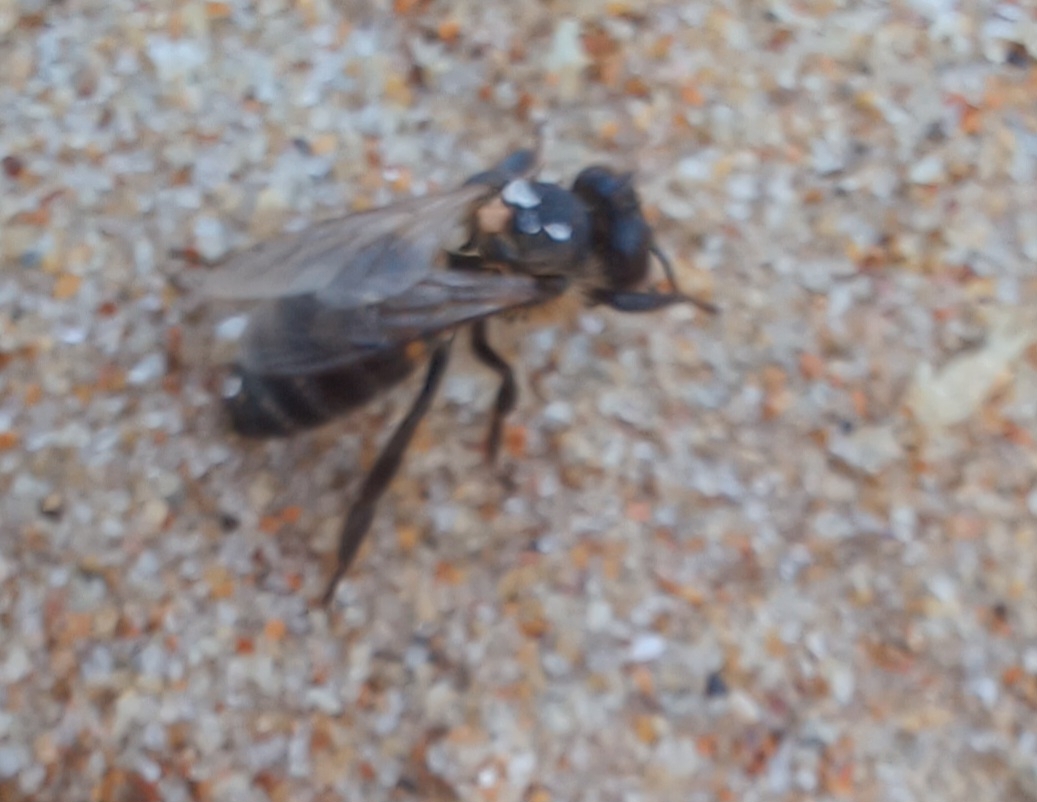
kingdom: Animalia
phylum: Arthropoda
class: Insecta
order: Hymenoptera
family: Apidae
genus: Apis
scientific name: Apis mellifera
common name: Honey bee
